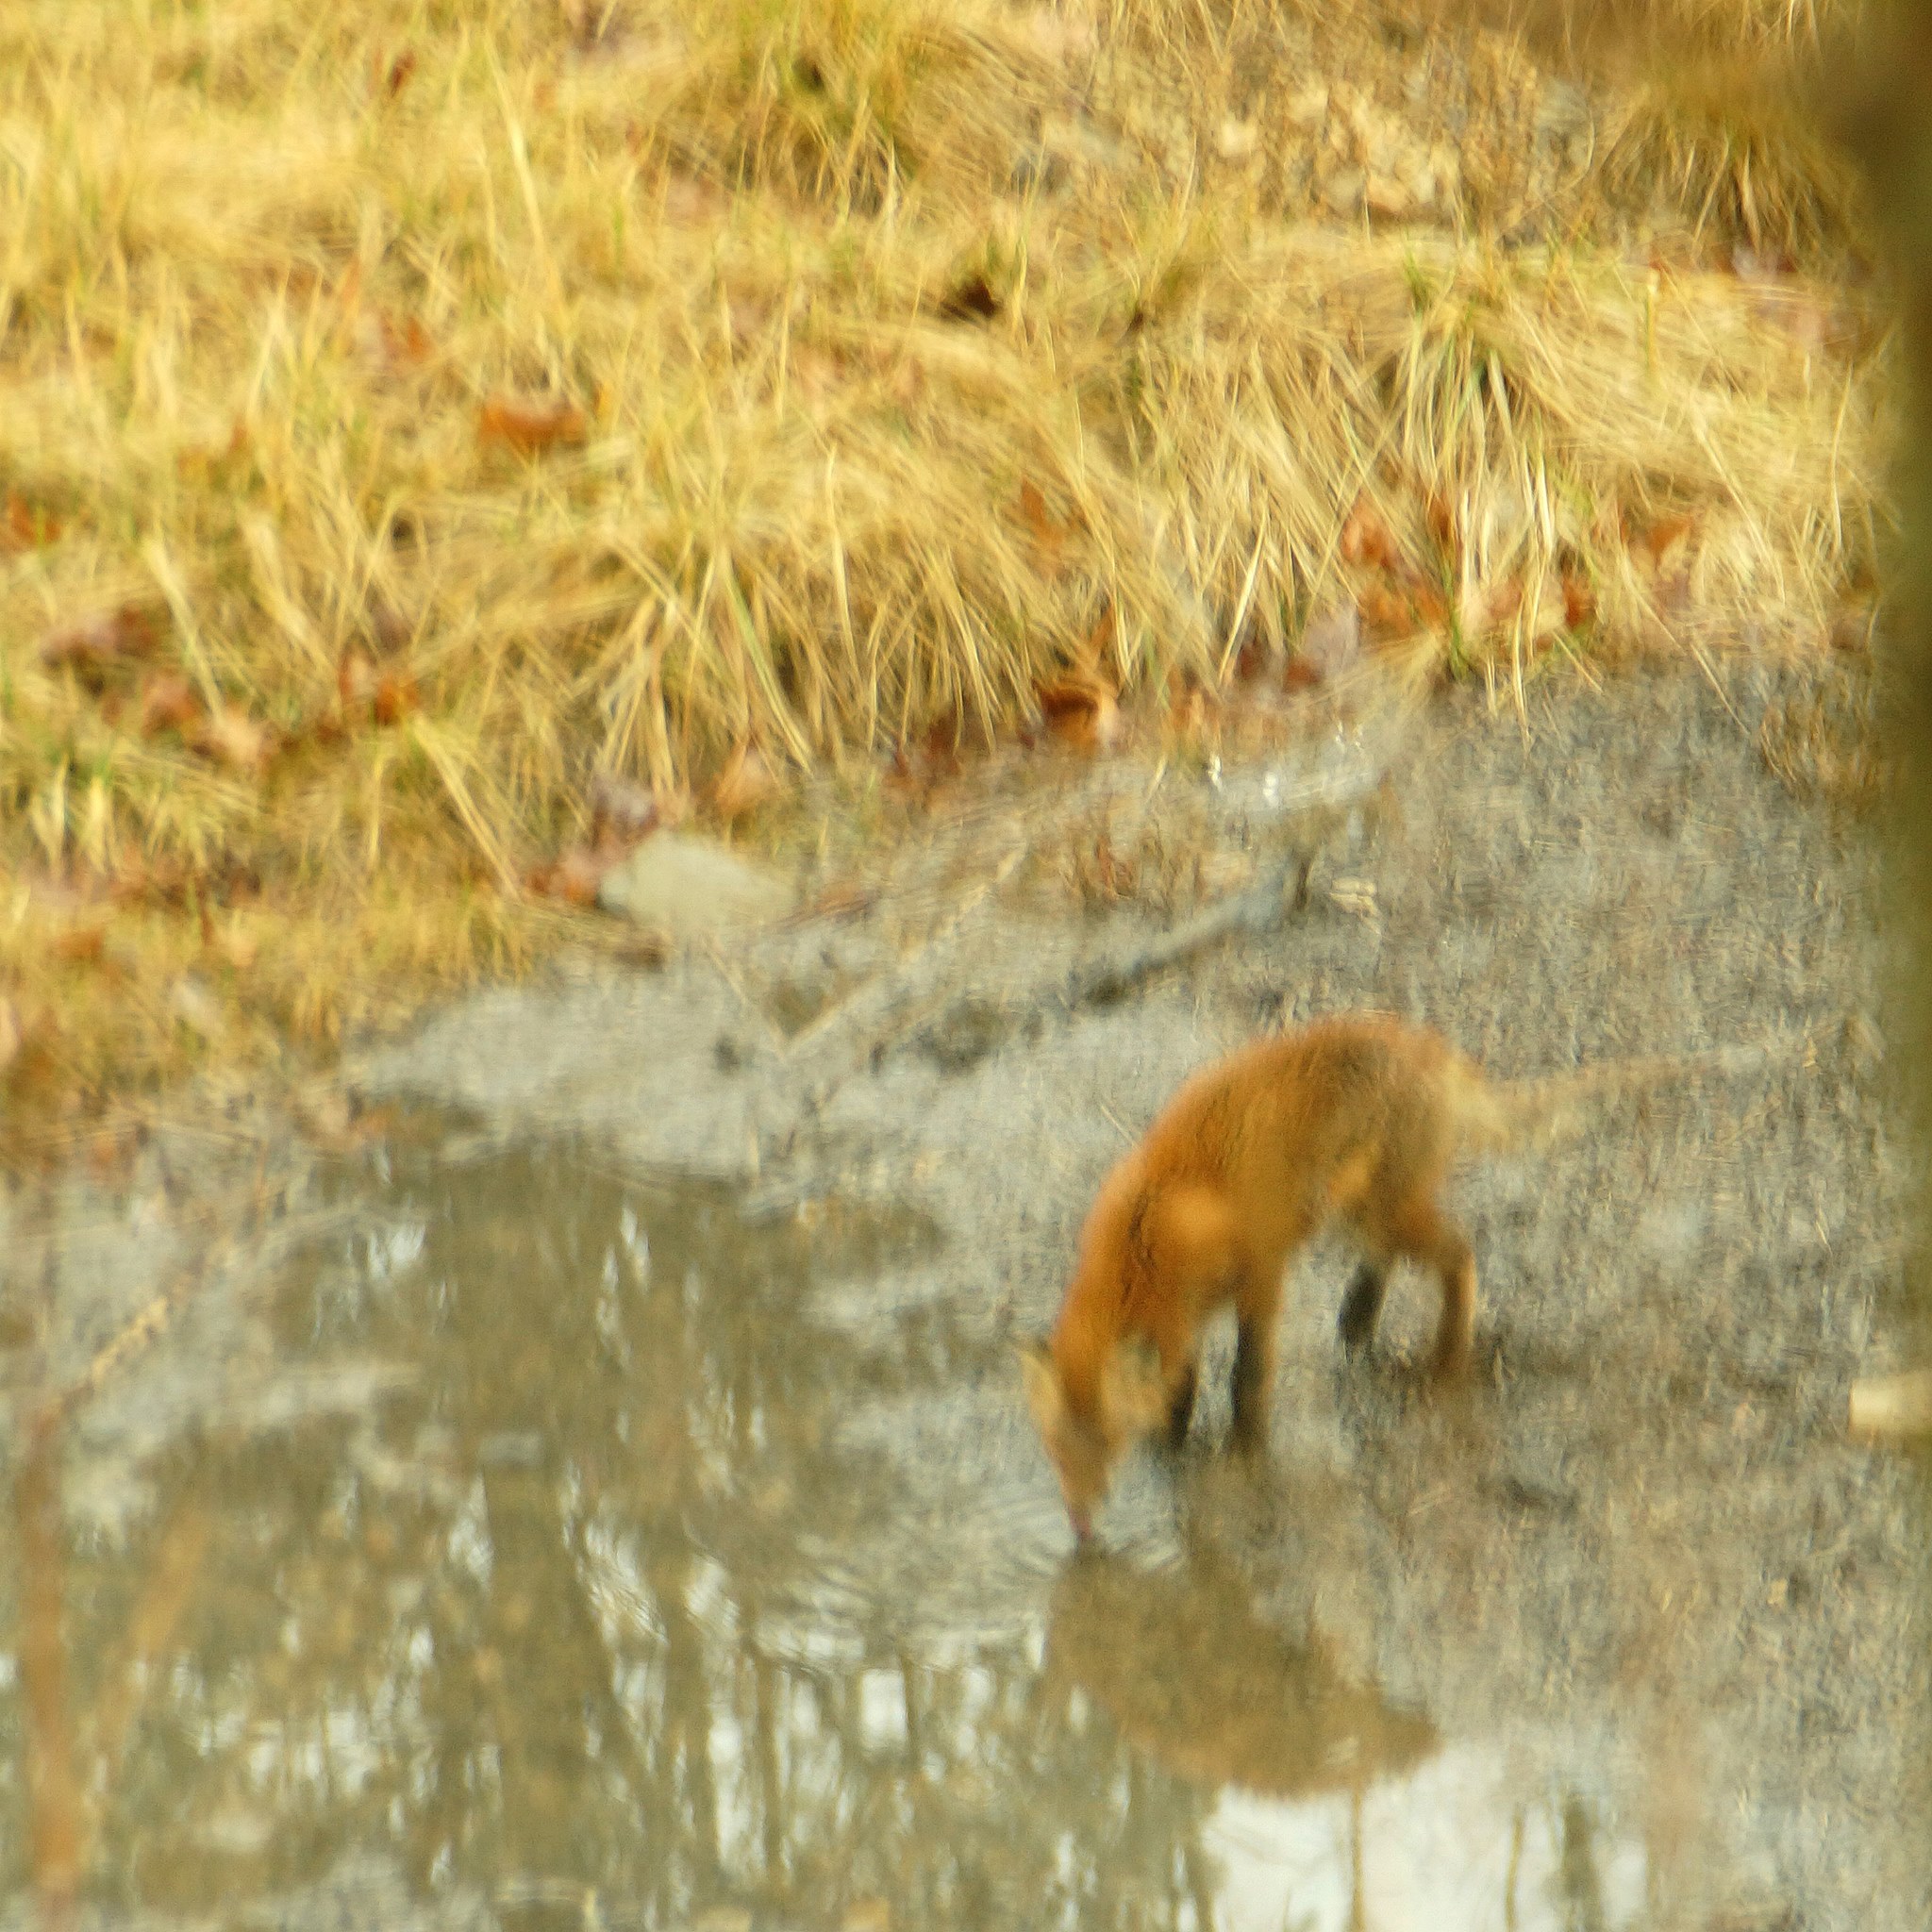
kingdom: Animalia
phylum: Chordata
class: Mammalia
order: Carnivora
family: Canidae
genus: Vulpes
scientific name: Vulpes vulpes
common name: Red fox
